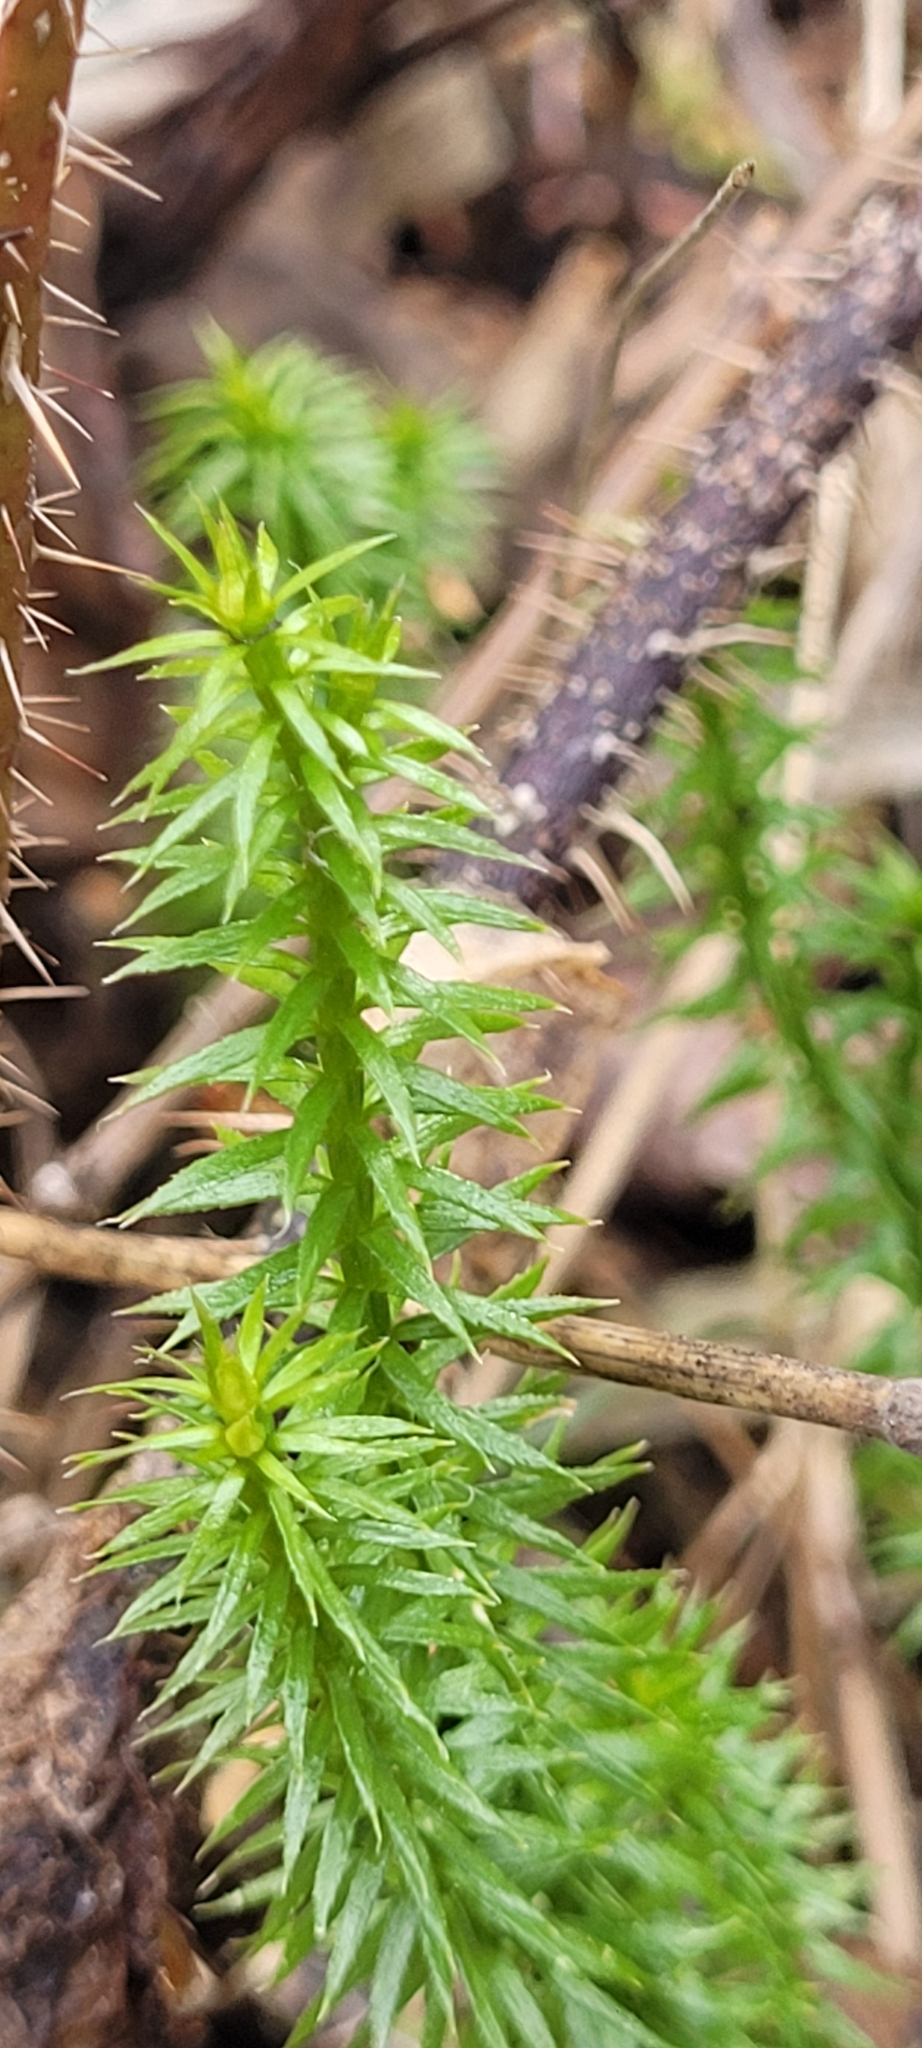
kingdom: Plantae
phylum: Tracheophyta
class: Lycopodiopsida
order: Lycopodiales
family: Lycopodiaceae
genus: Spinulum
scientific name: Spinulum annotinum
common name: Interrupted club-moss
